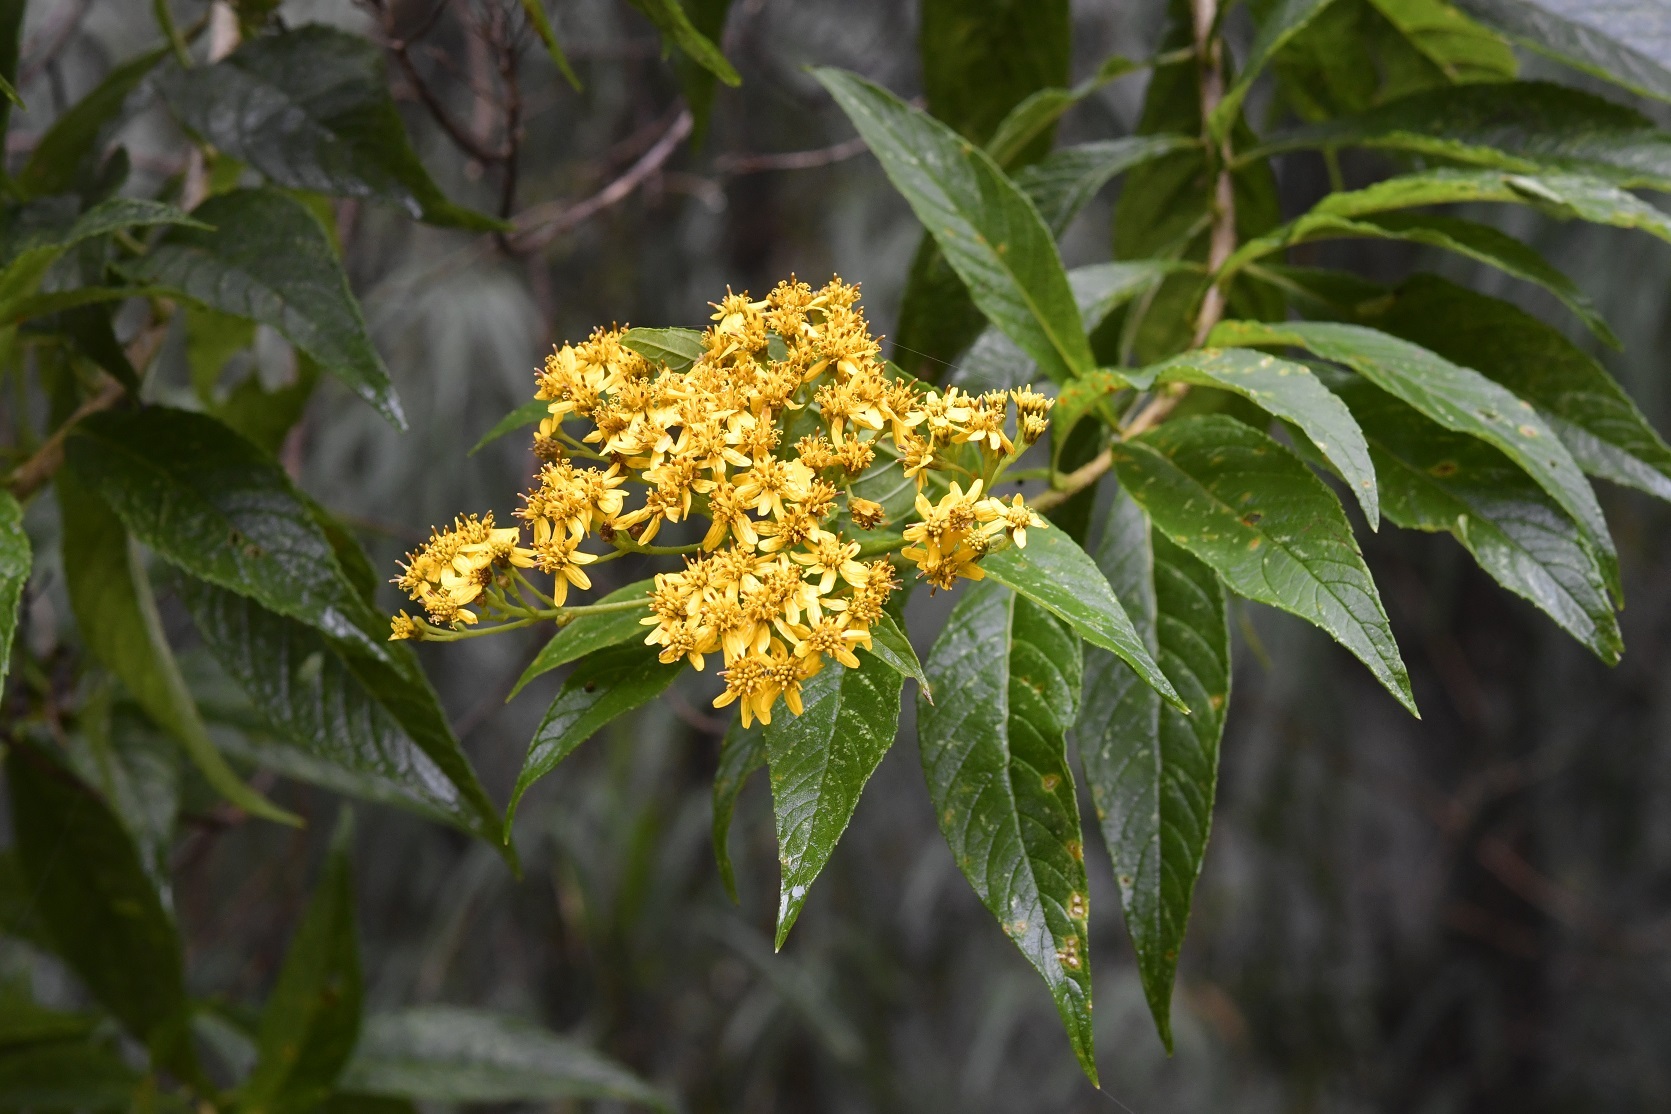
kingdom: Plantae
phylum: Tracheophyta
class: Magnoliopsida
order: Asterales
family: Asteraceae
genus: Verbesina
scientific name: Verbesina perymenioides
